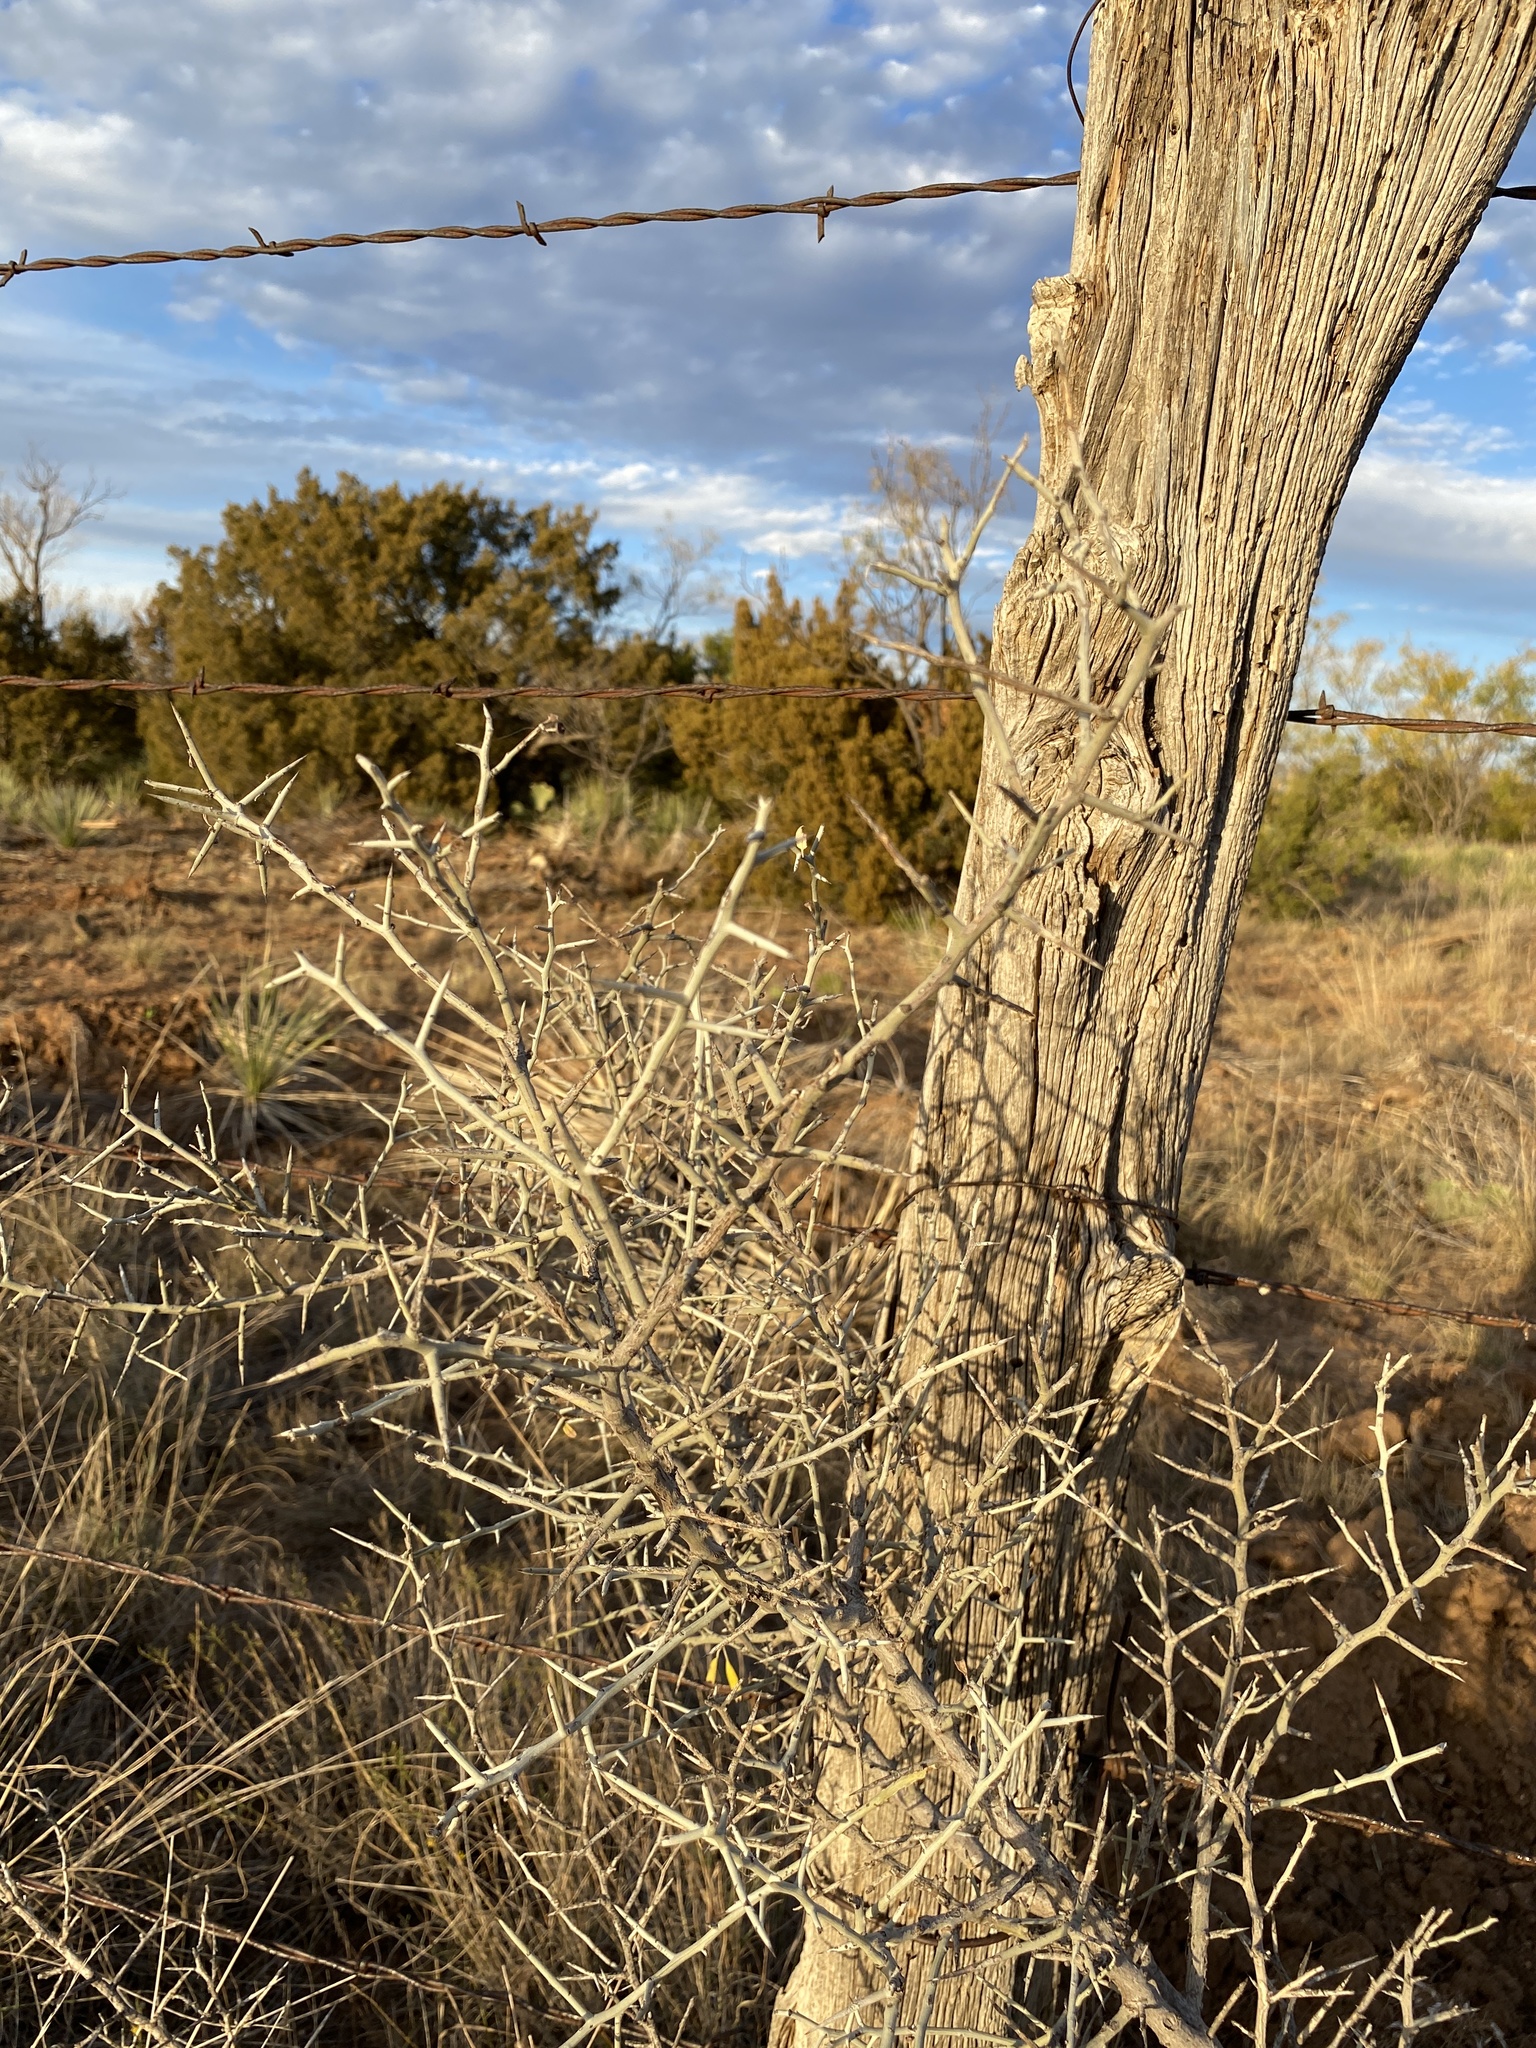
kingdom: Plantae
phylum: Tracheophyta
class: Magnoliopsida
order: Rosales
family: Rhamnaceae
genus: Sarcomphalus
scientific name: Sarcomphalus obtusifolius
